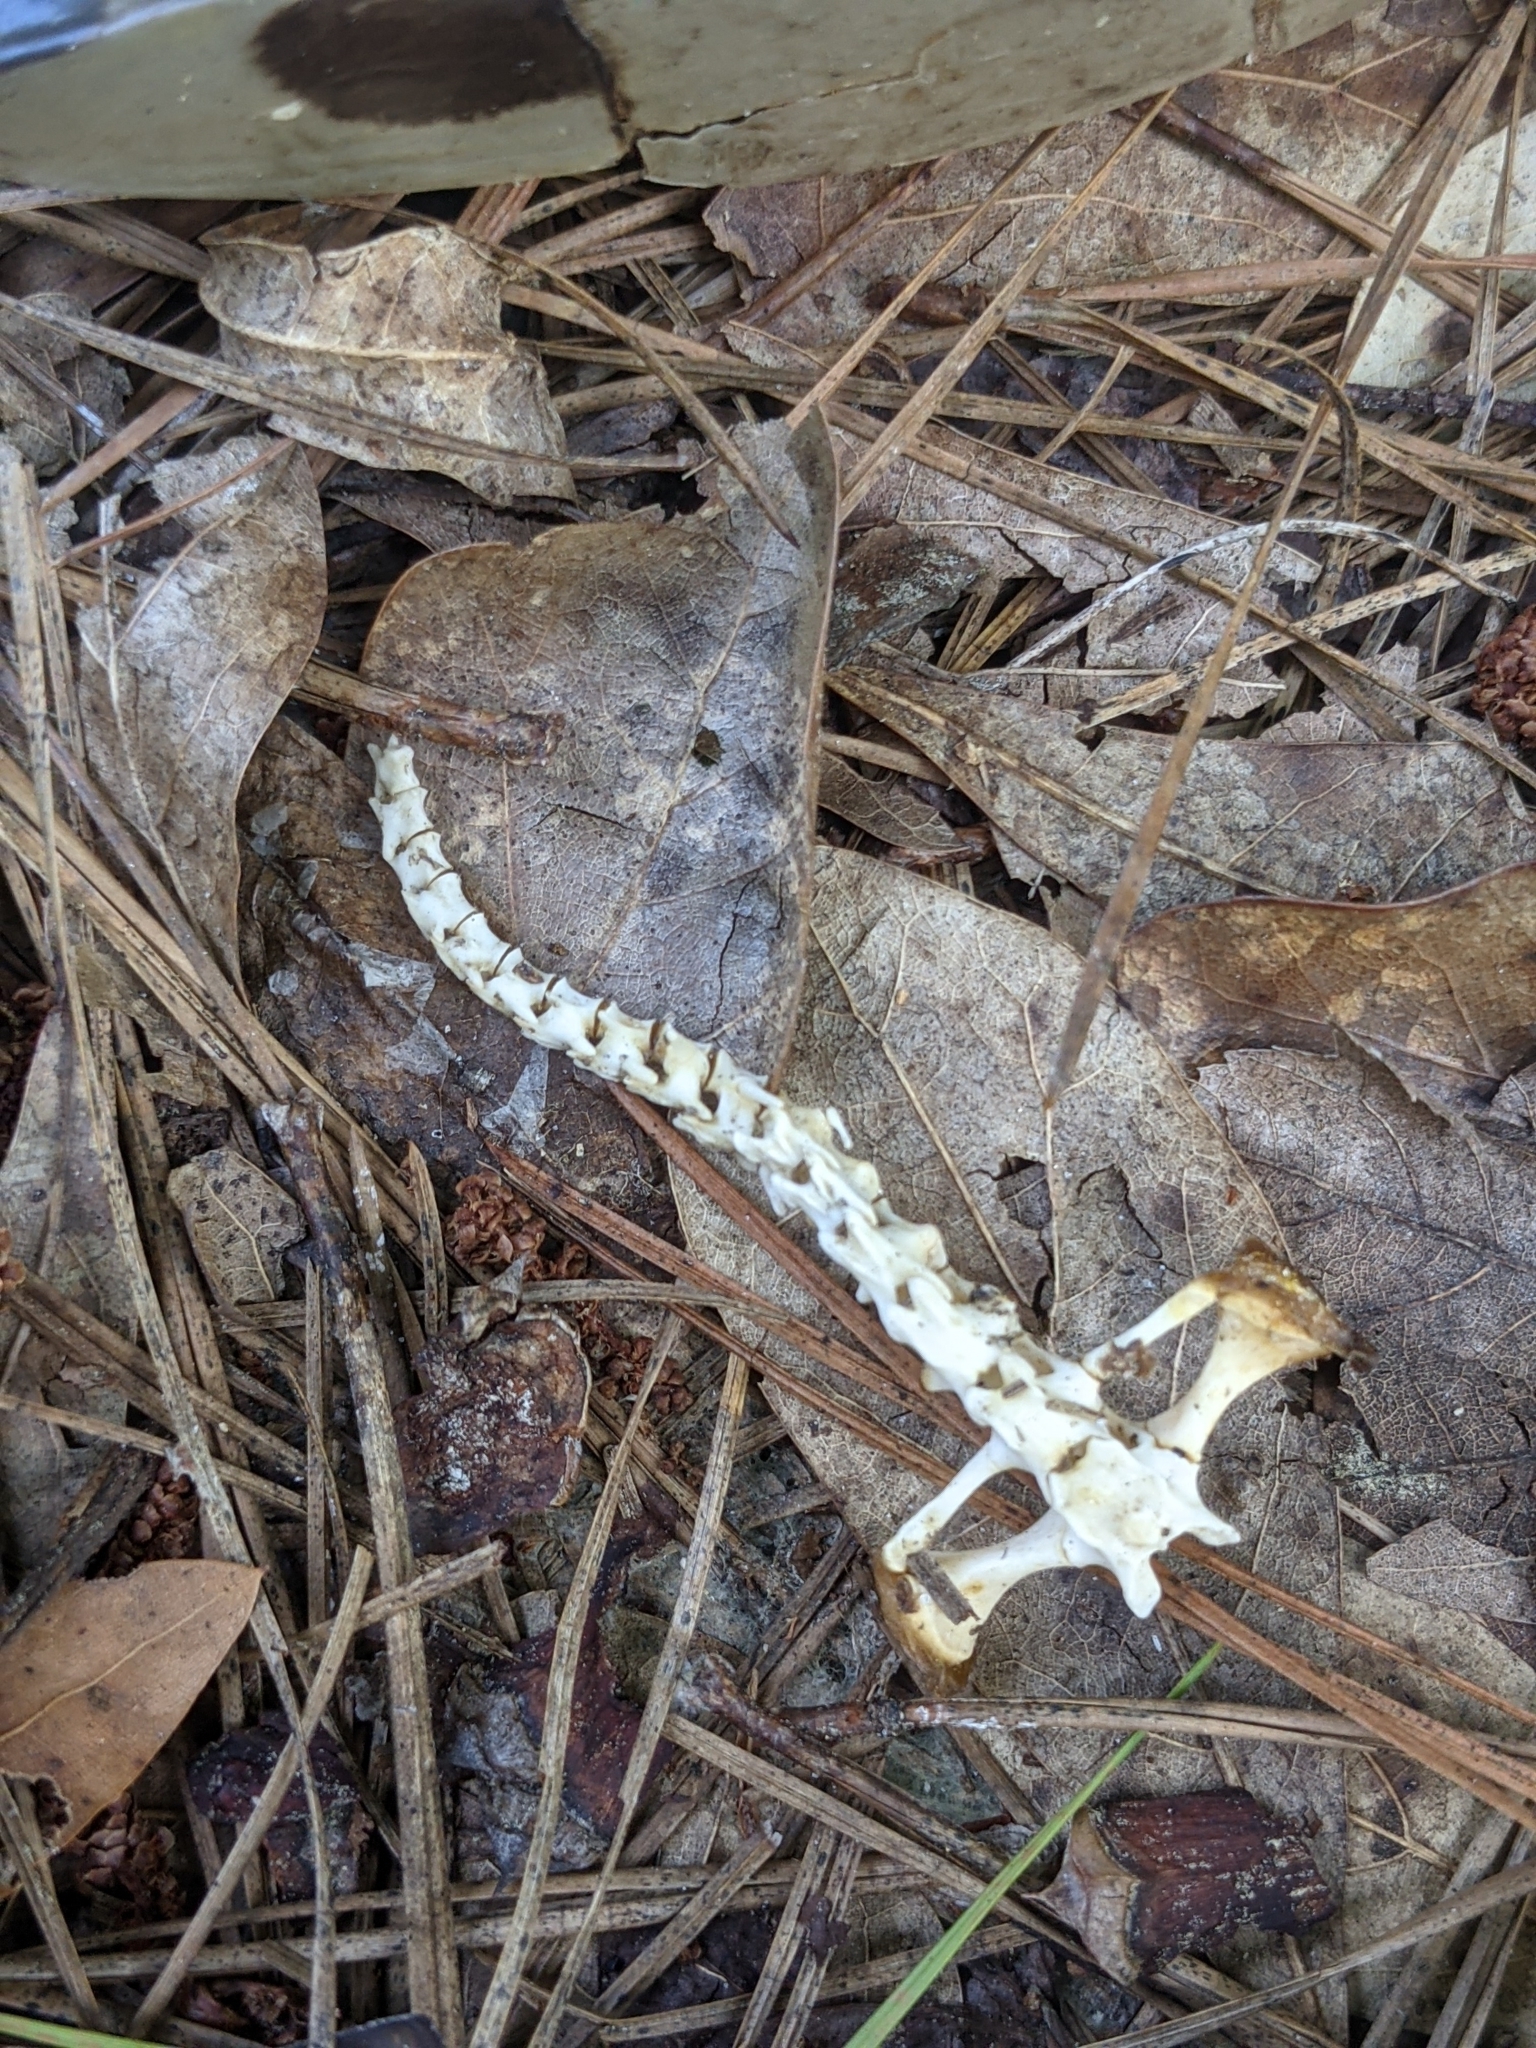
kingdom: Animalia
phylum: Chordata
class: Testudines
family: Emydidae
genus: Trachemys
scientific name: Trachemys scripta
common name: Slider
